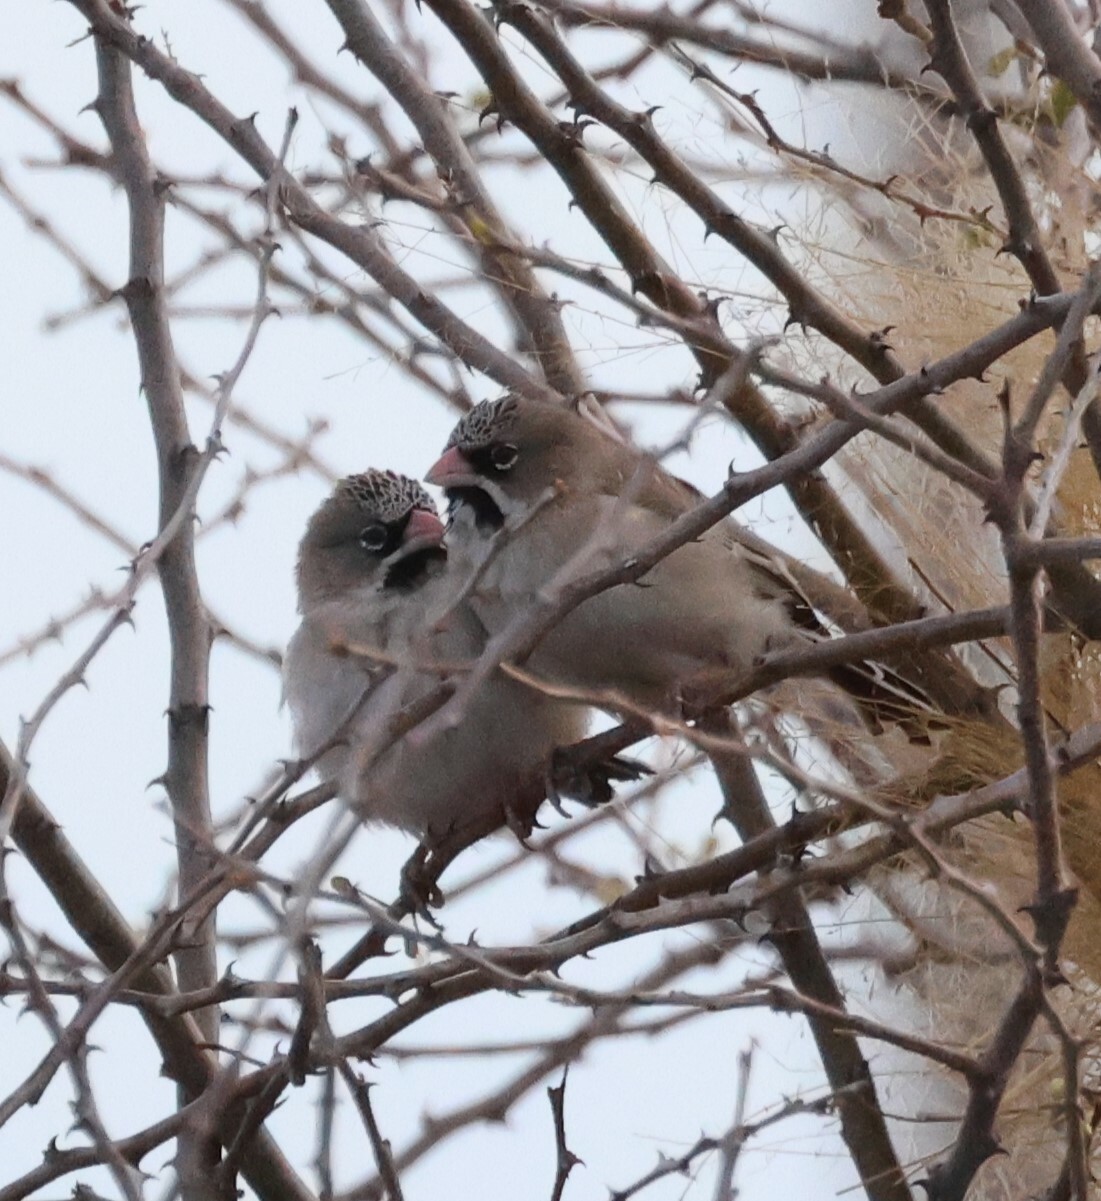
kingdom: Animalia
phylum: Chordata
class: Aves
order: Passeriformes
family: Ploceidae
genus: Sporopipes
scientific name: Sporopipes squamifrons
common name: Scaly-feathered weaver
